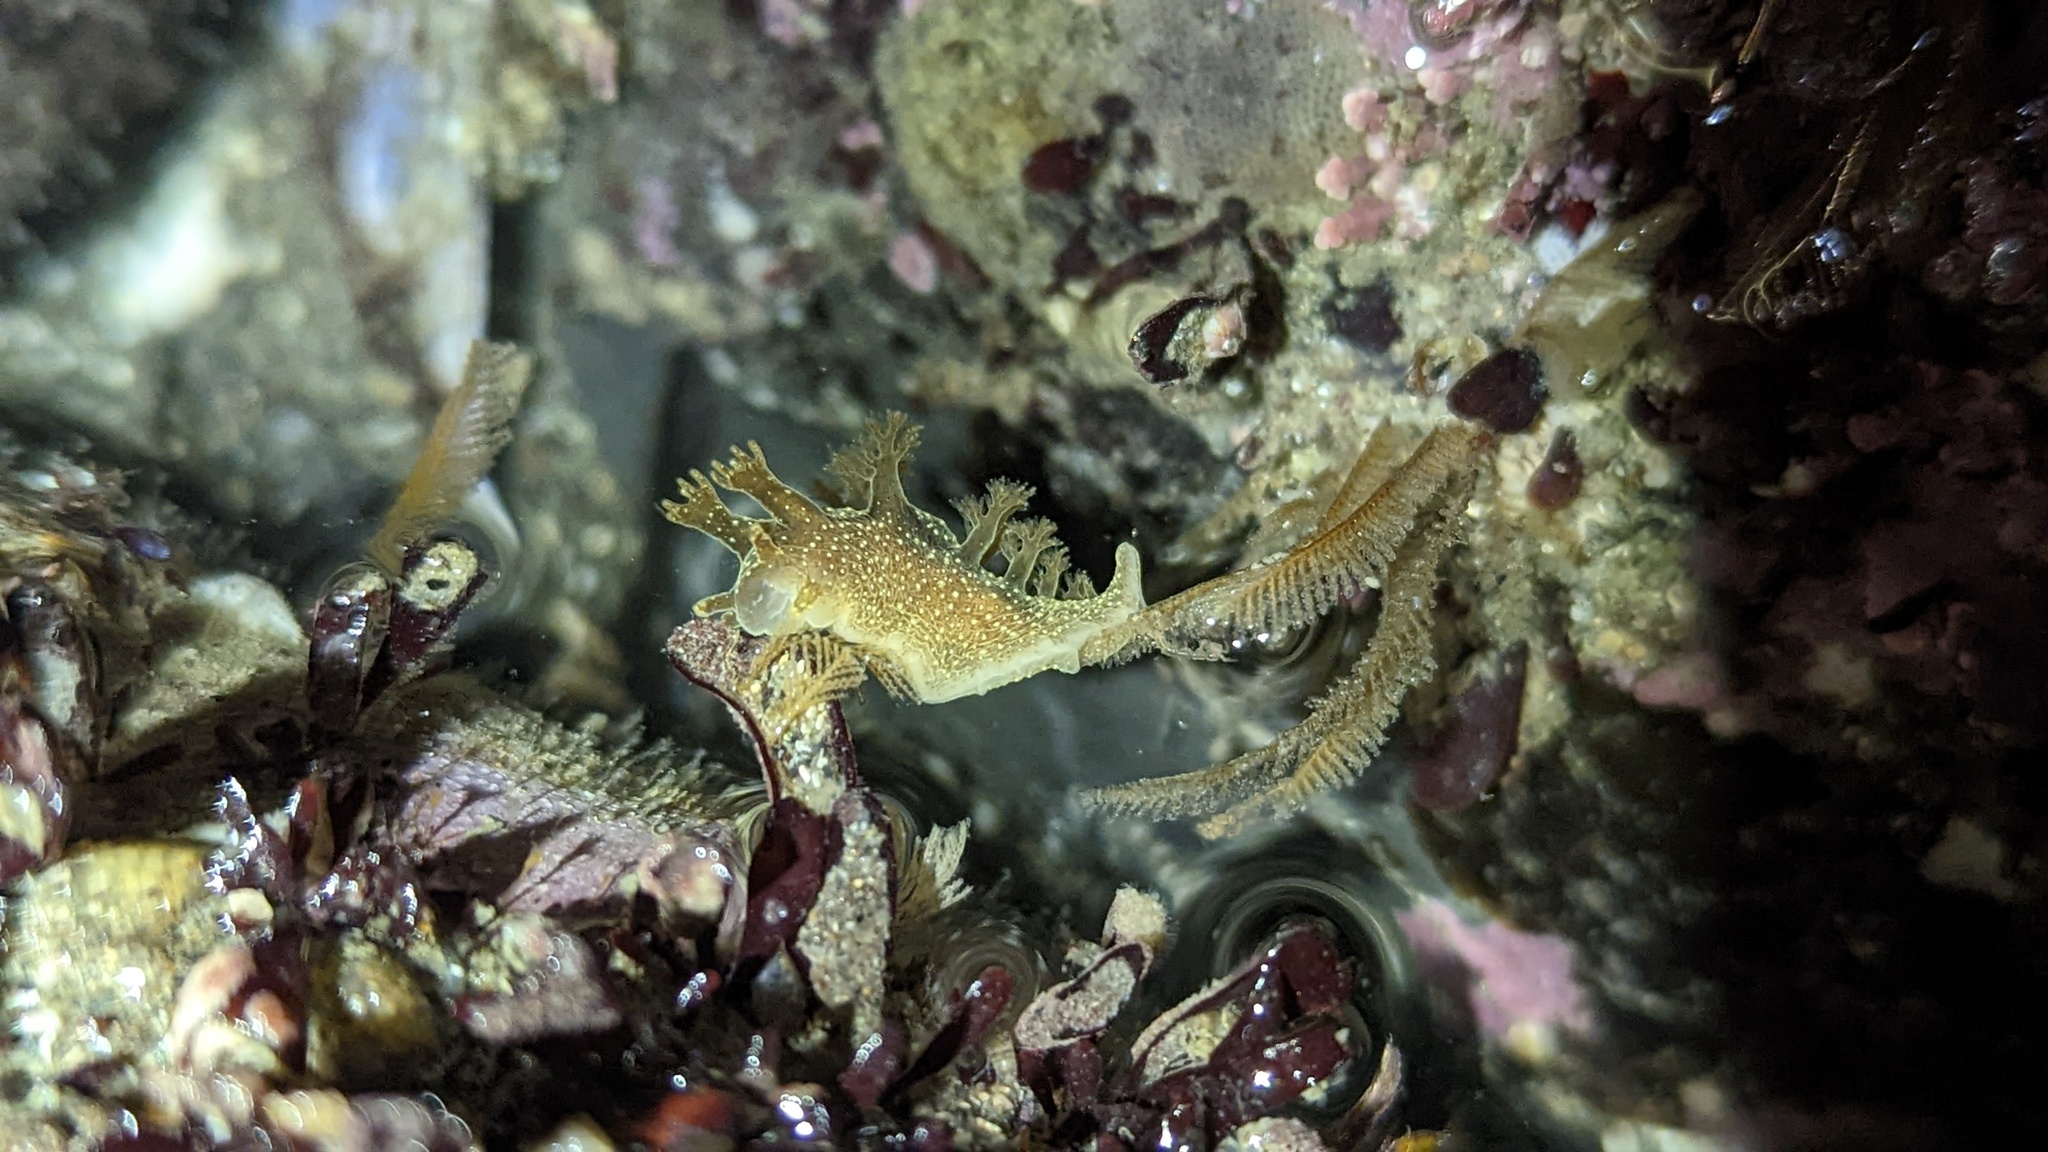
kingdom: Animalia
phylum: Mollusca
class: Gastropoda
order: Nudibranchia
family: Dendronotidae
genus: Dendronotus
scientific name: Dendronotus subramosus
